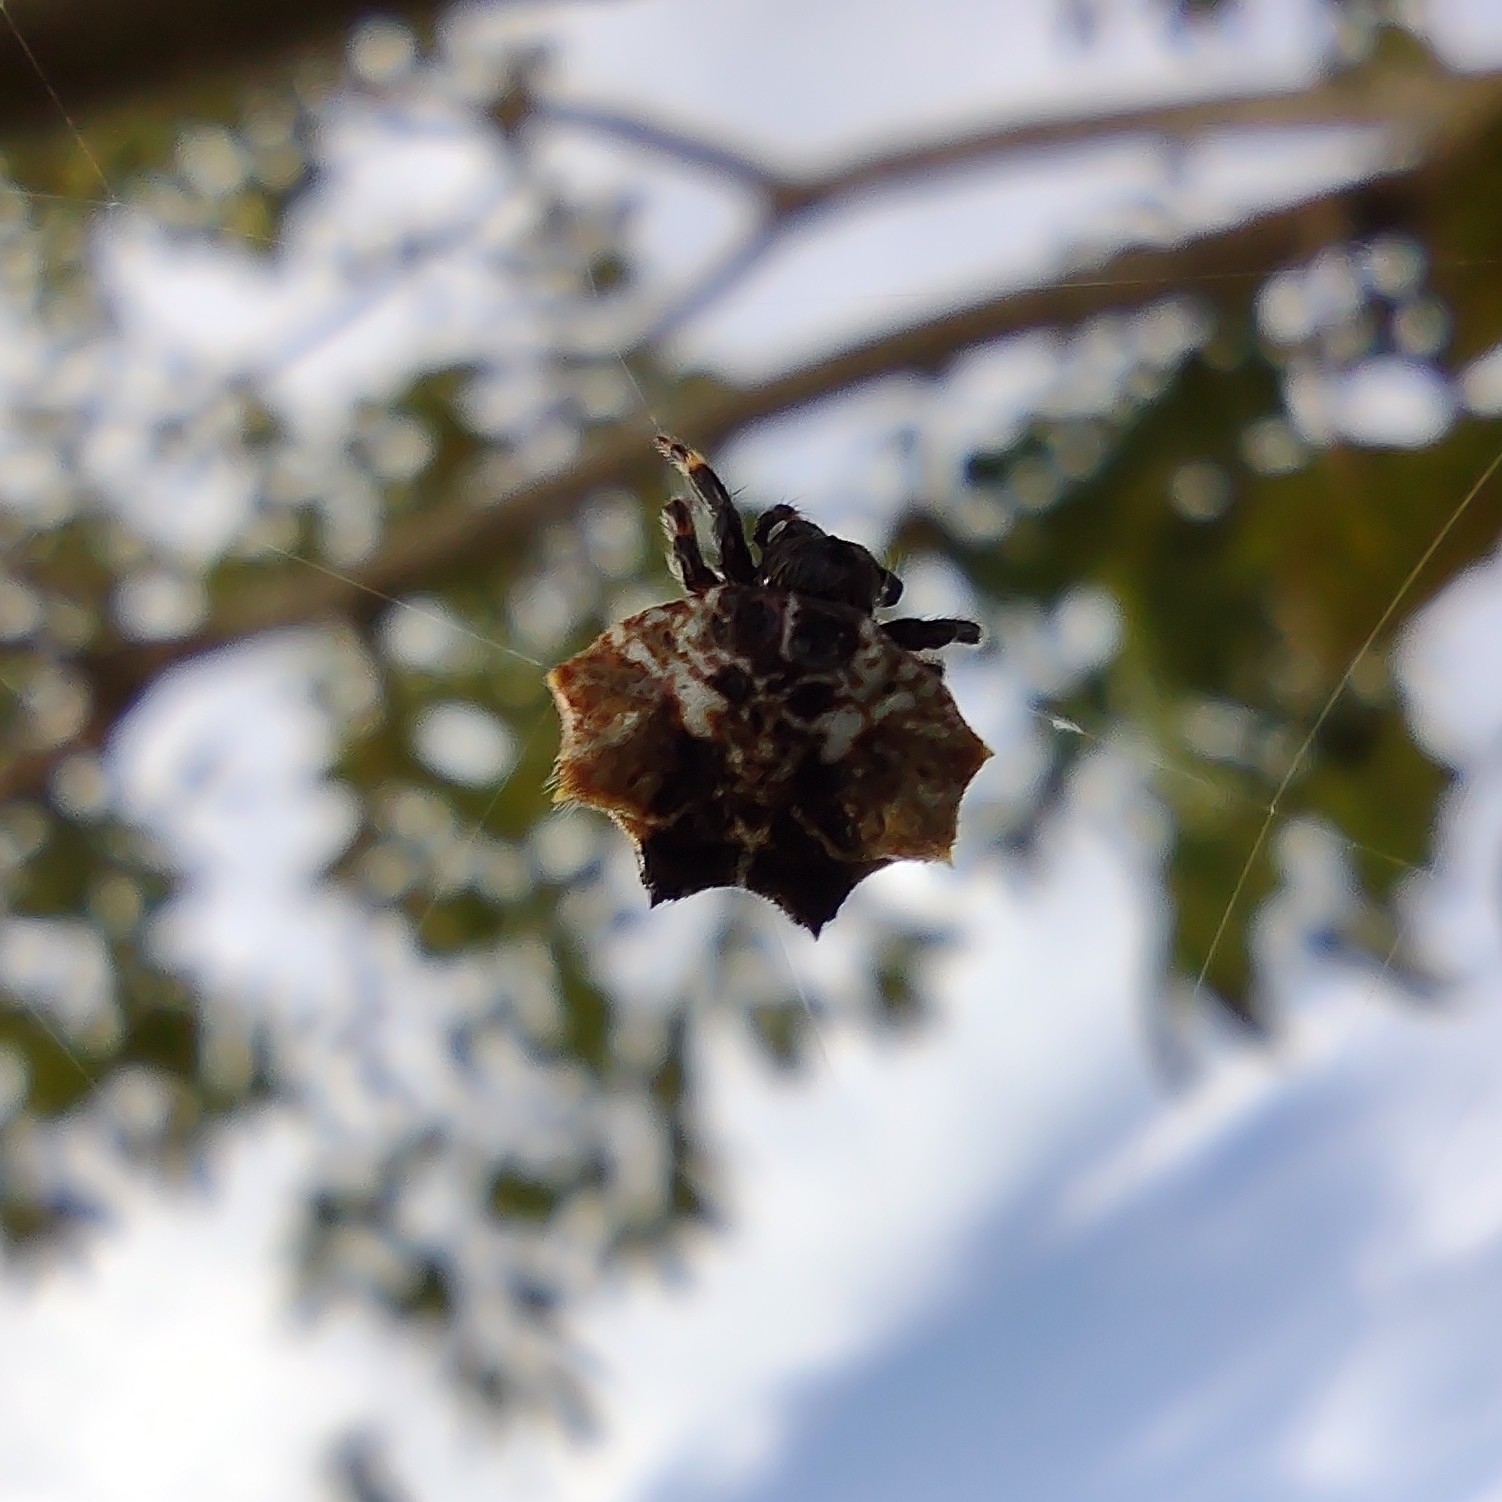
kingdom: Animalia
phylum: Arthropoda
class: Arachnida
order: Araneae
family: Araneidae
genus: Thelacantha
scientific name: Thelacantha brevispina
